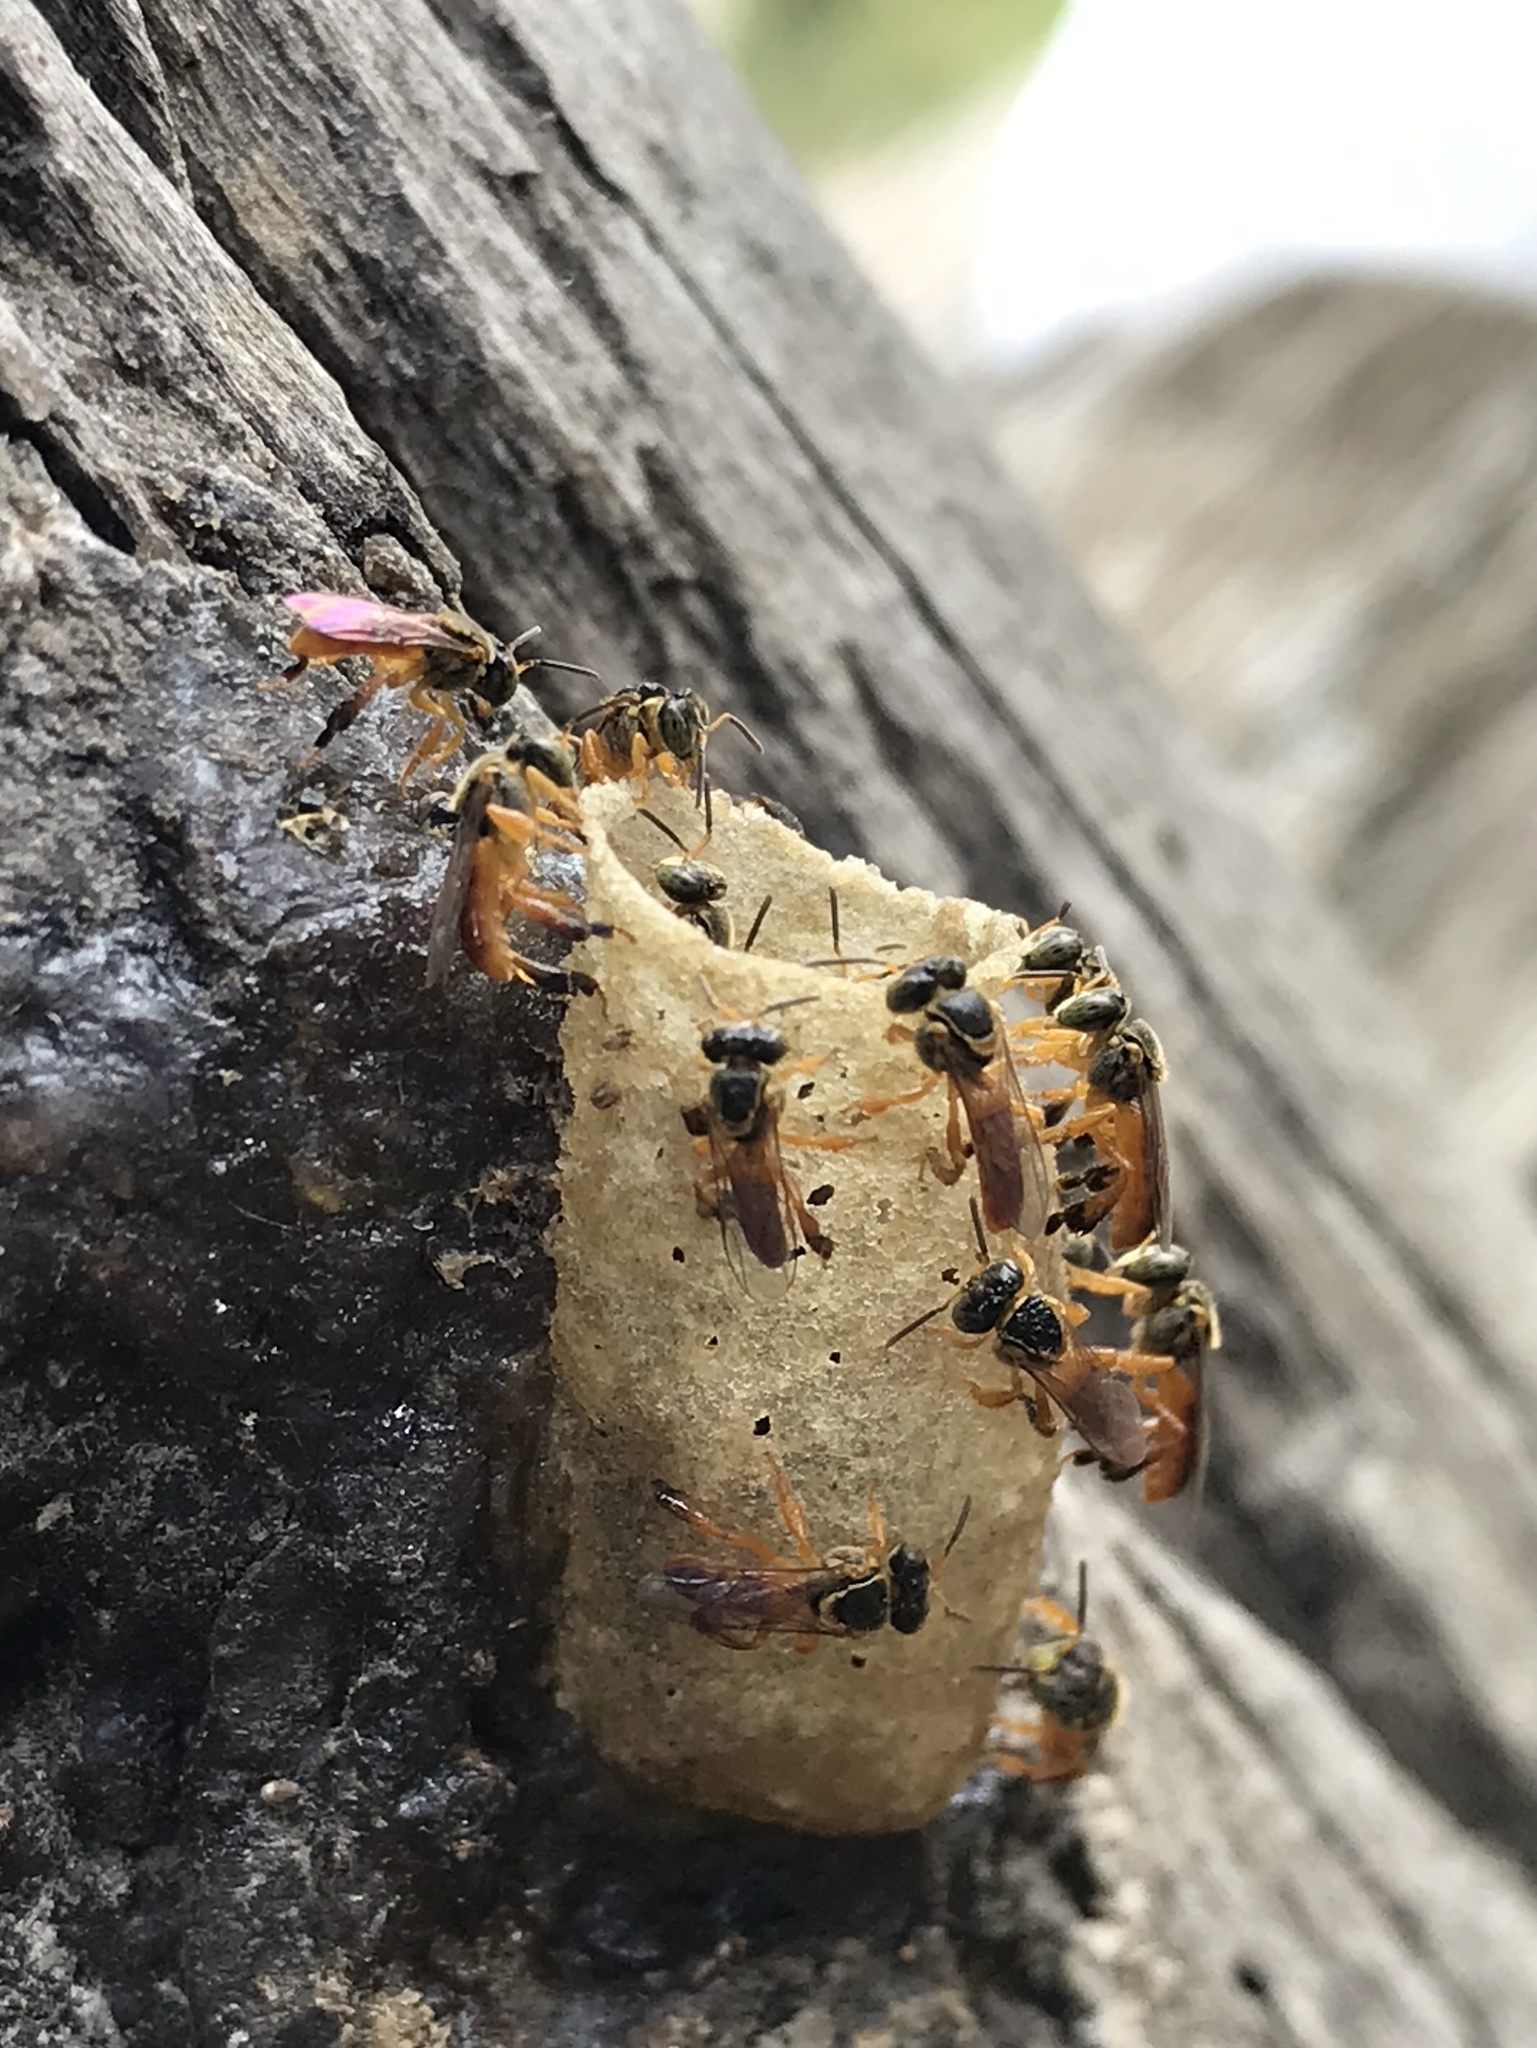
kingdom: Animalia
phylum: Arthropoda
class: Insecta
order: Hymenoptera
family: Apidae
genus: Tetragonisca
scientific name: Tetragonisca angustula
